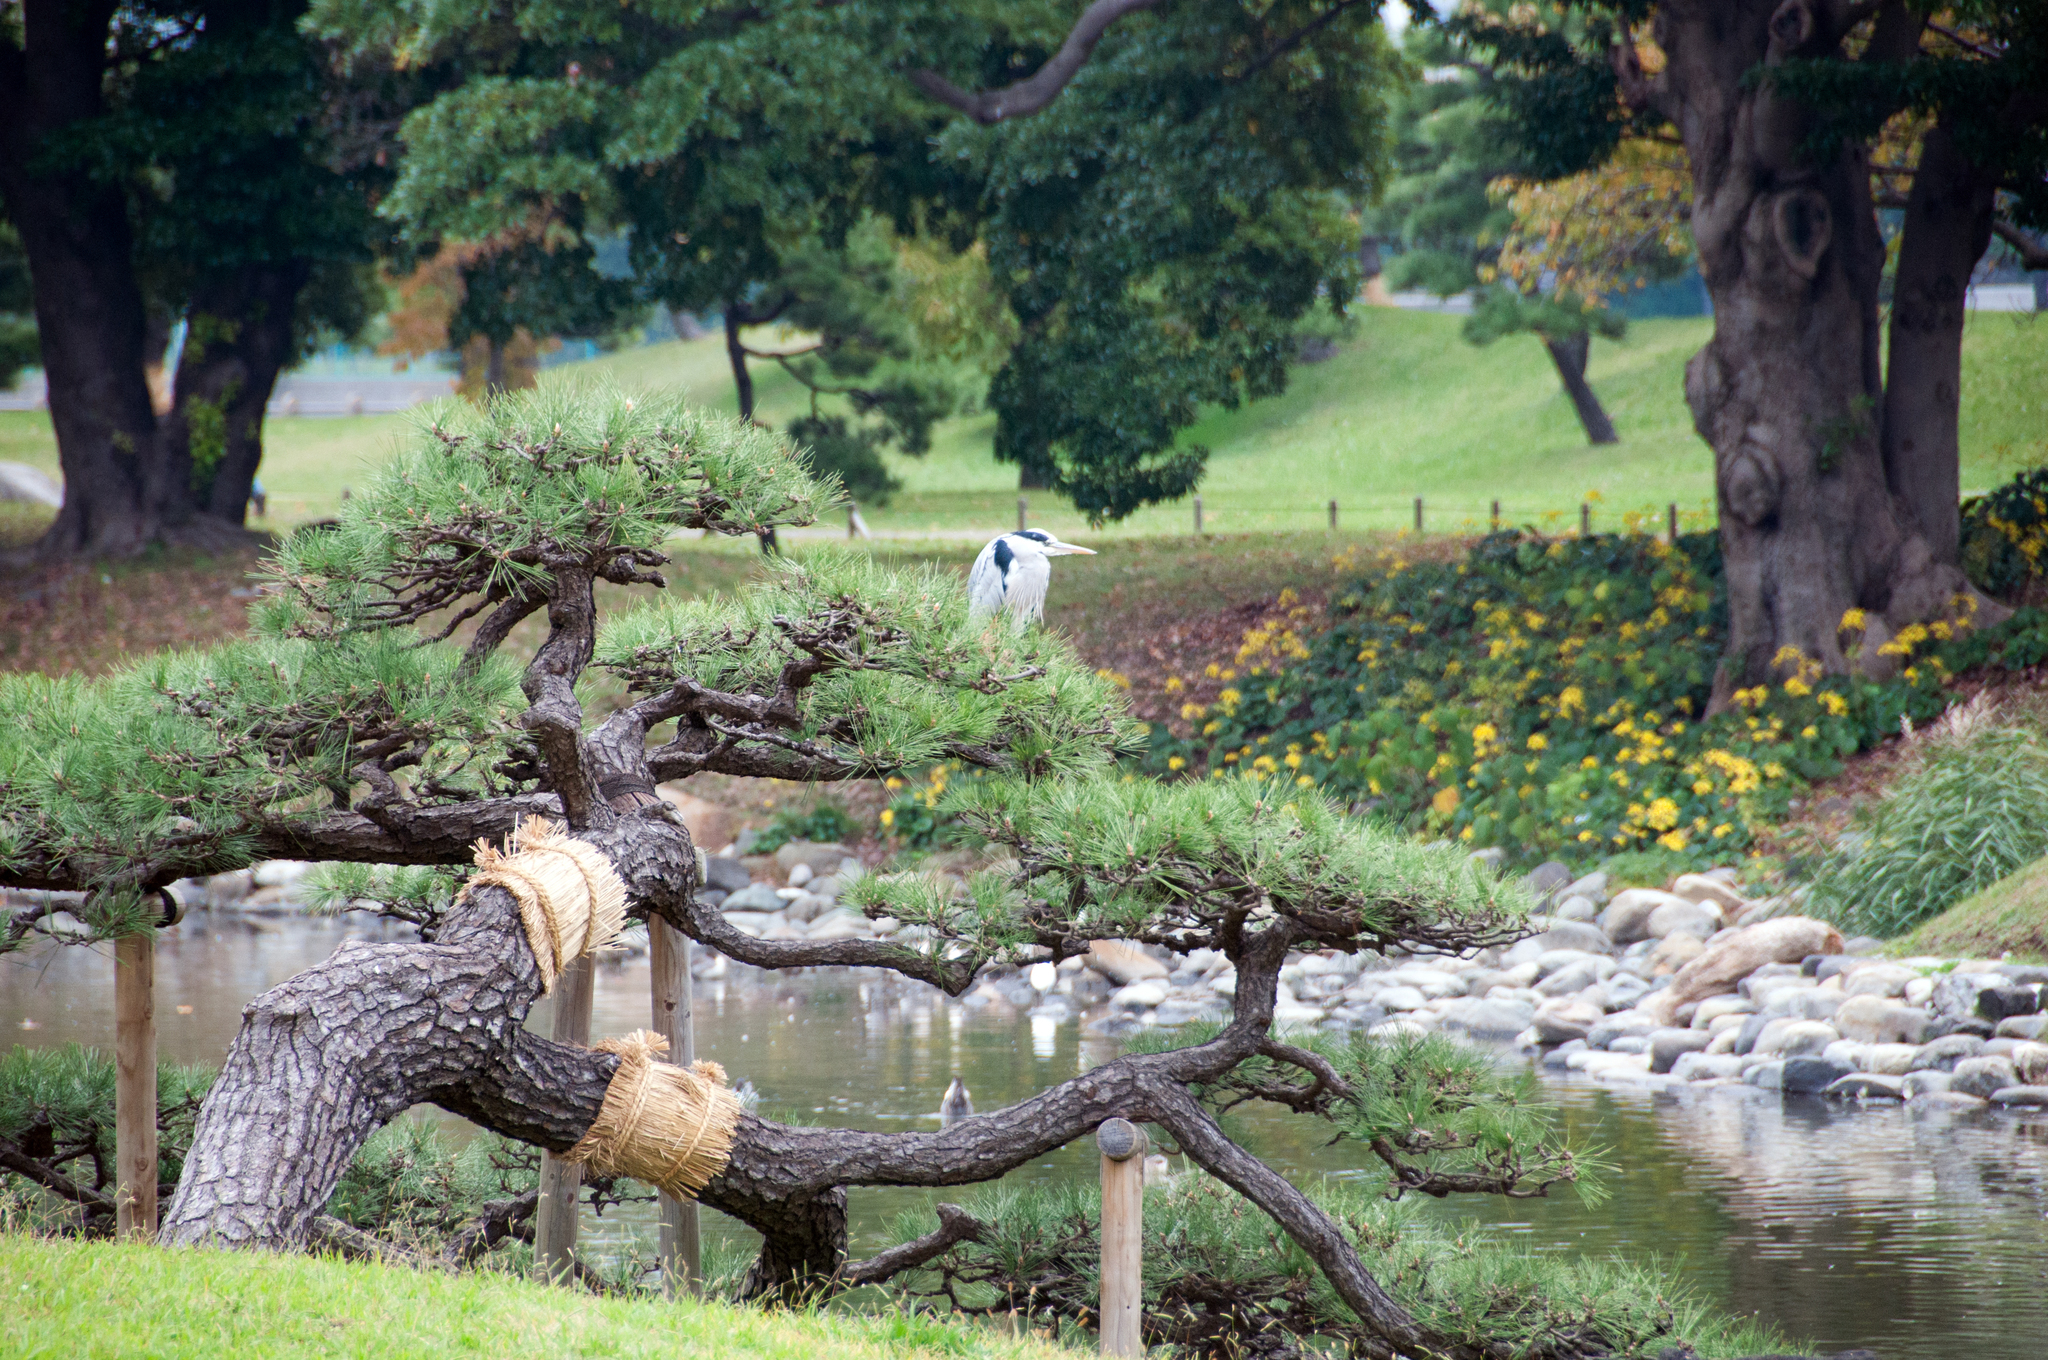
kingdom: Animalia
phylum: Chordata
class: Aves
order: Pelecaniformes
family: Ardeidae
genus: Ardea
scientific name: Ardea cinerea
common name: Grey heron
